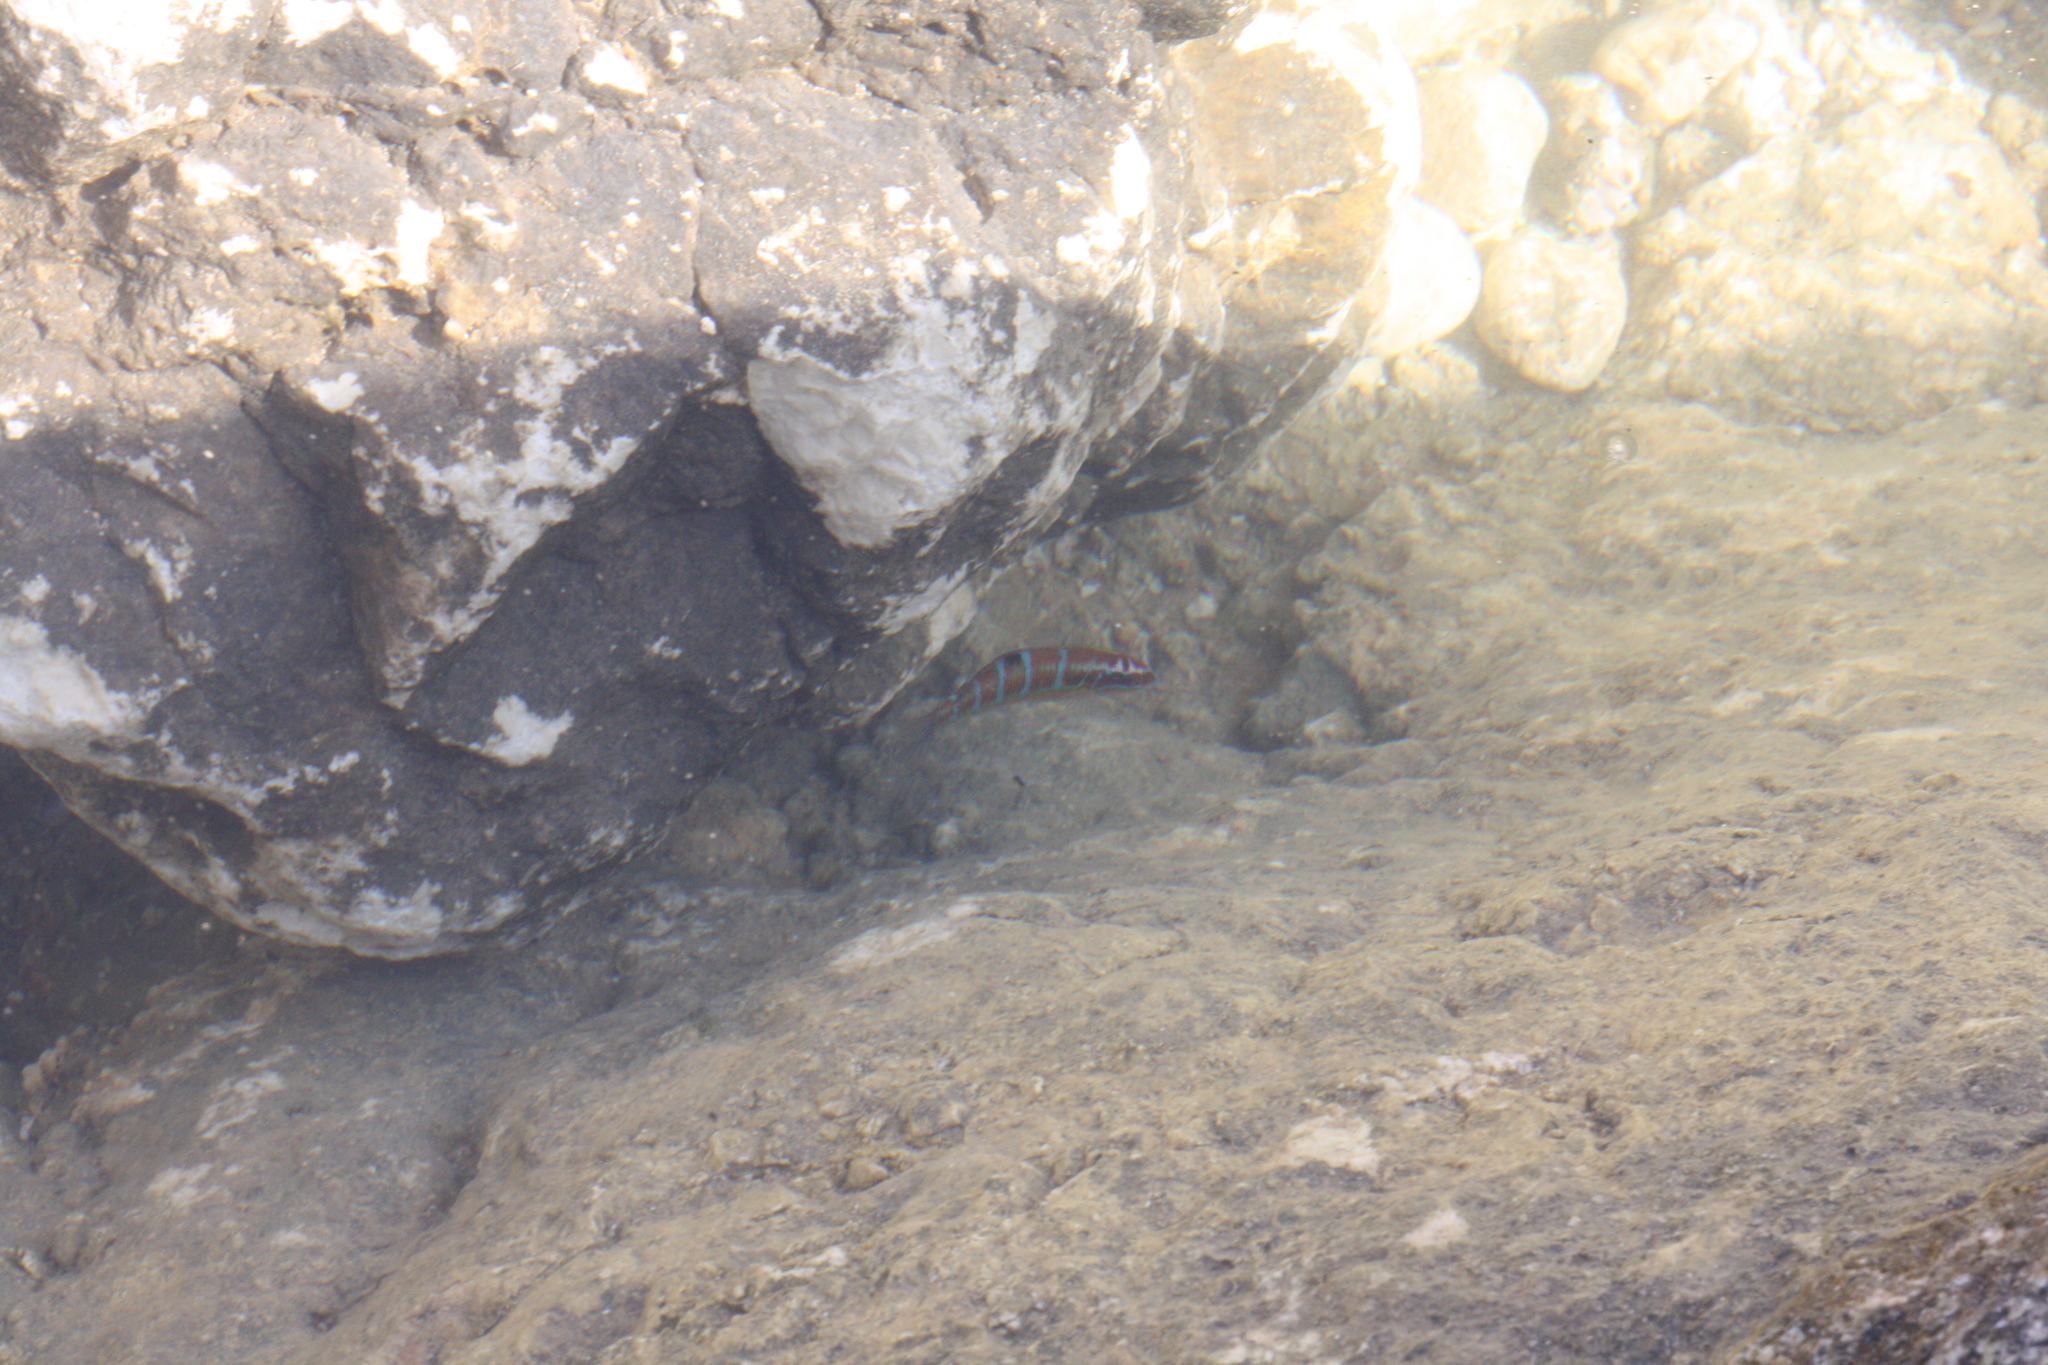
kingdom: Animalia
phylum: Chordata
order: Perciformes
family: Labridae
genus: Thalassoma
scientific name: Thalassoma pavo
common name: Ornate wrasse
